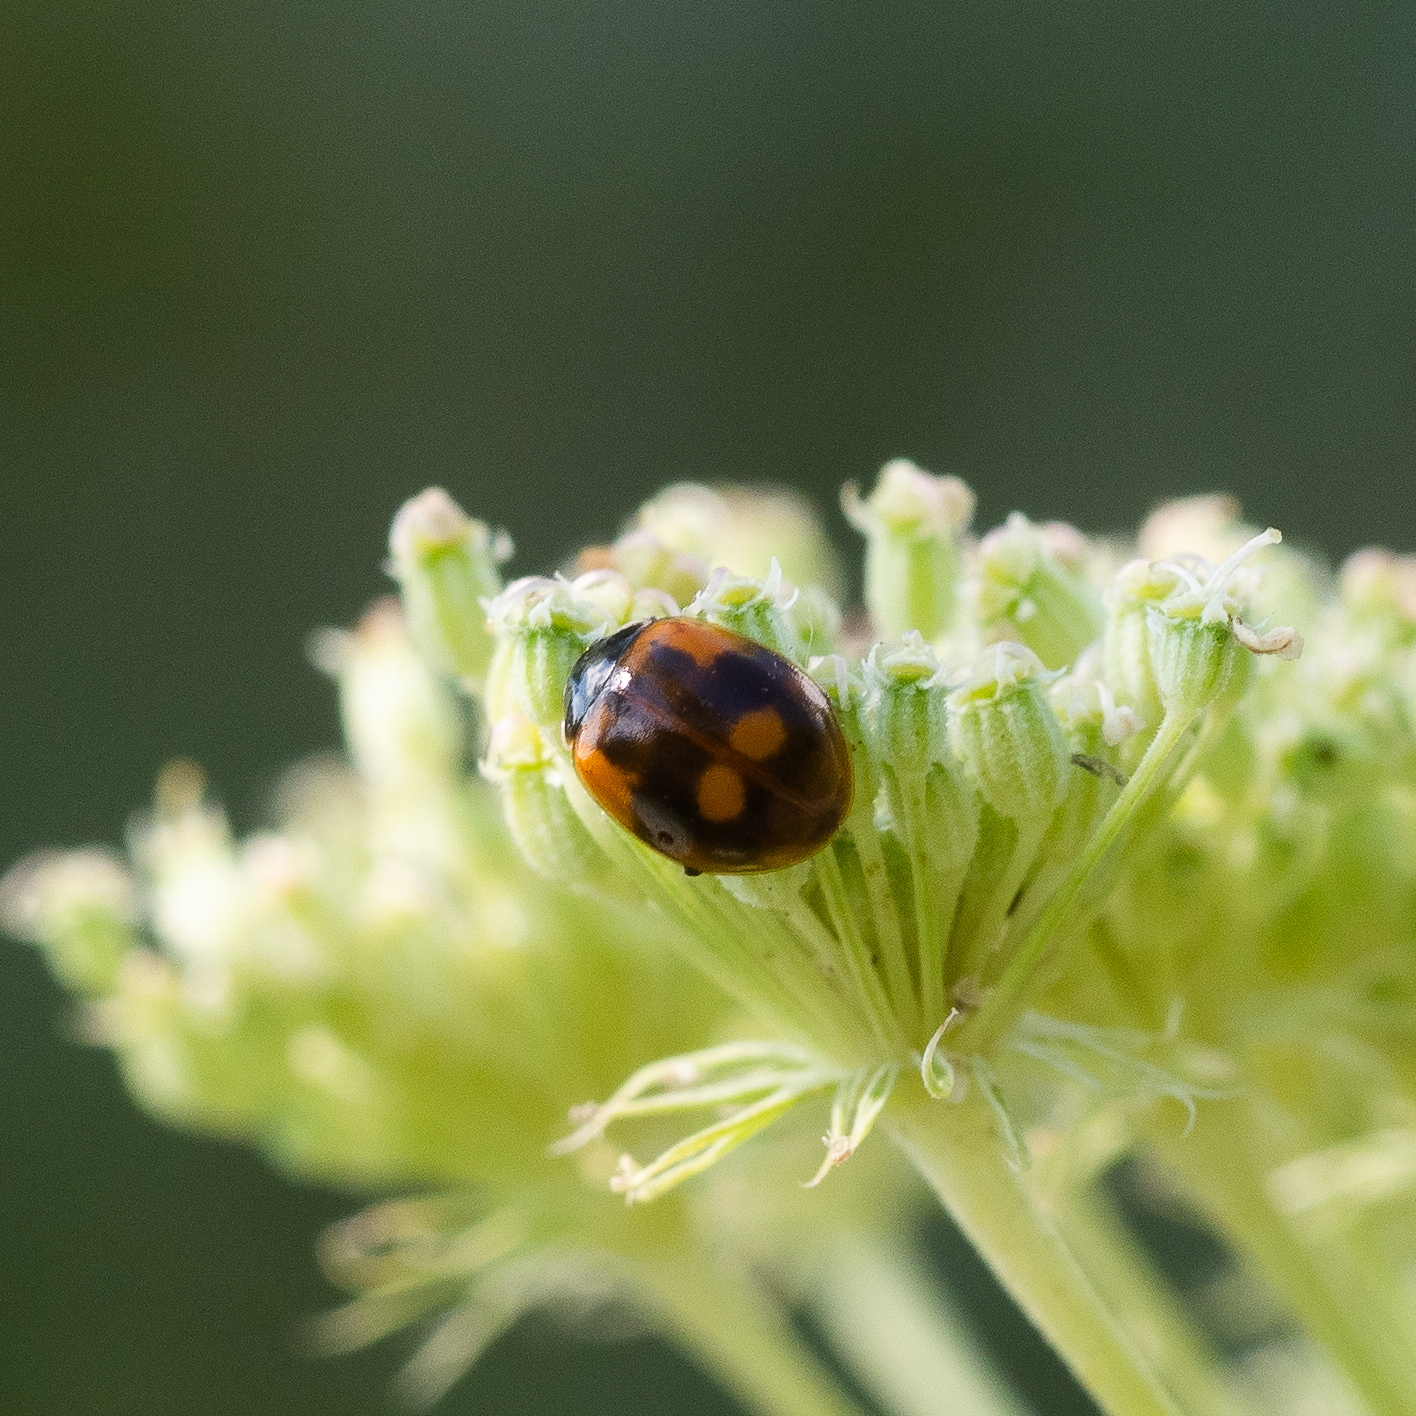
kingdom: Animalia
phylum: Arthropoda
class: Insecta
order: Coleoptera
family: Coccinellidae
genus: Adalia
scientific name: Adalia bipunctata
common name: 2-spot ladybird
